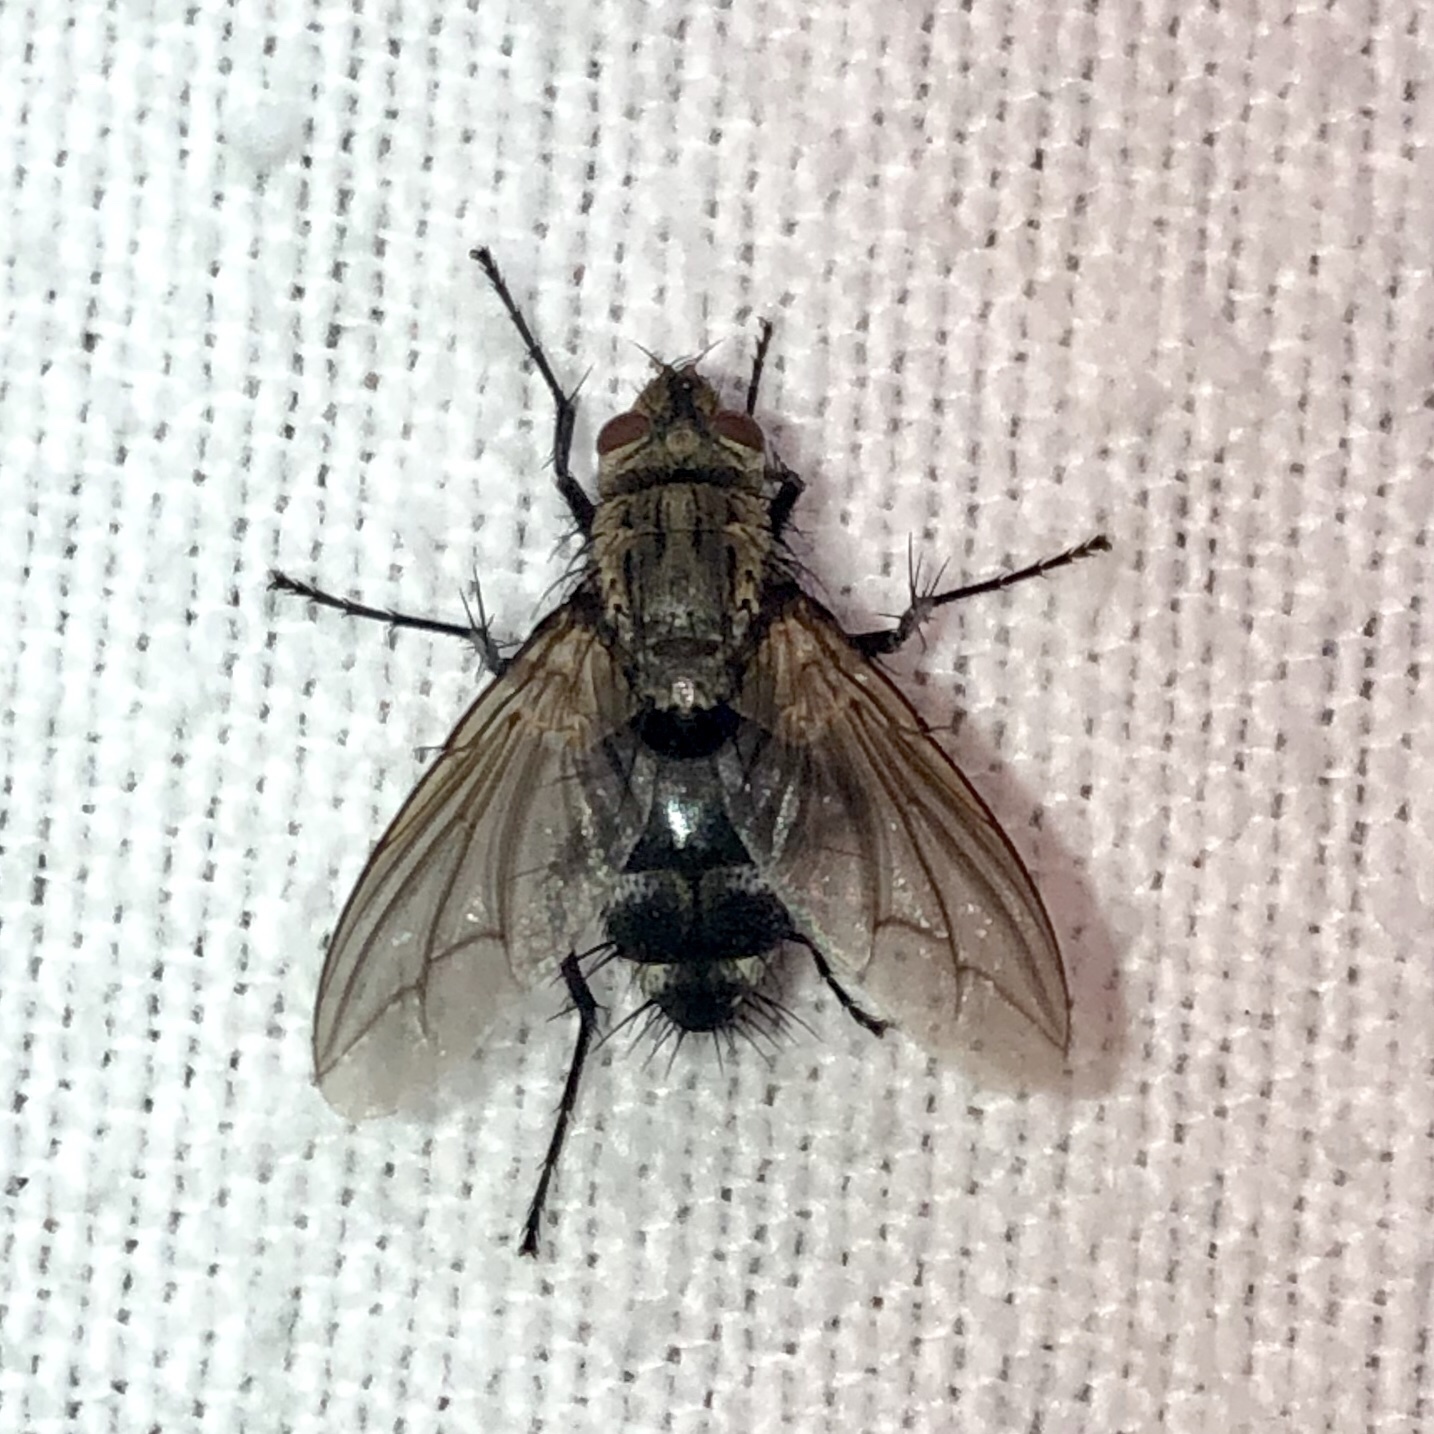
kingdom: Animalia
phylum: Arthropoda
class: Insecta
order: Diptera
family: Tachinidae
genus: Microphthalma
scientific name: Microphthalma disjuncta
